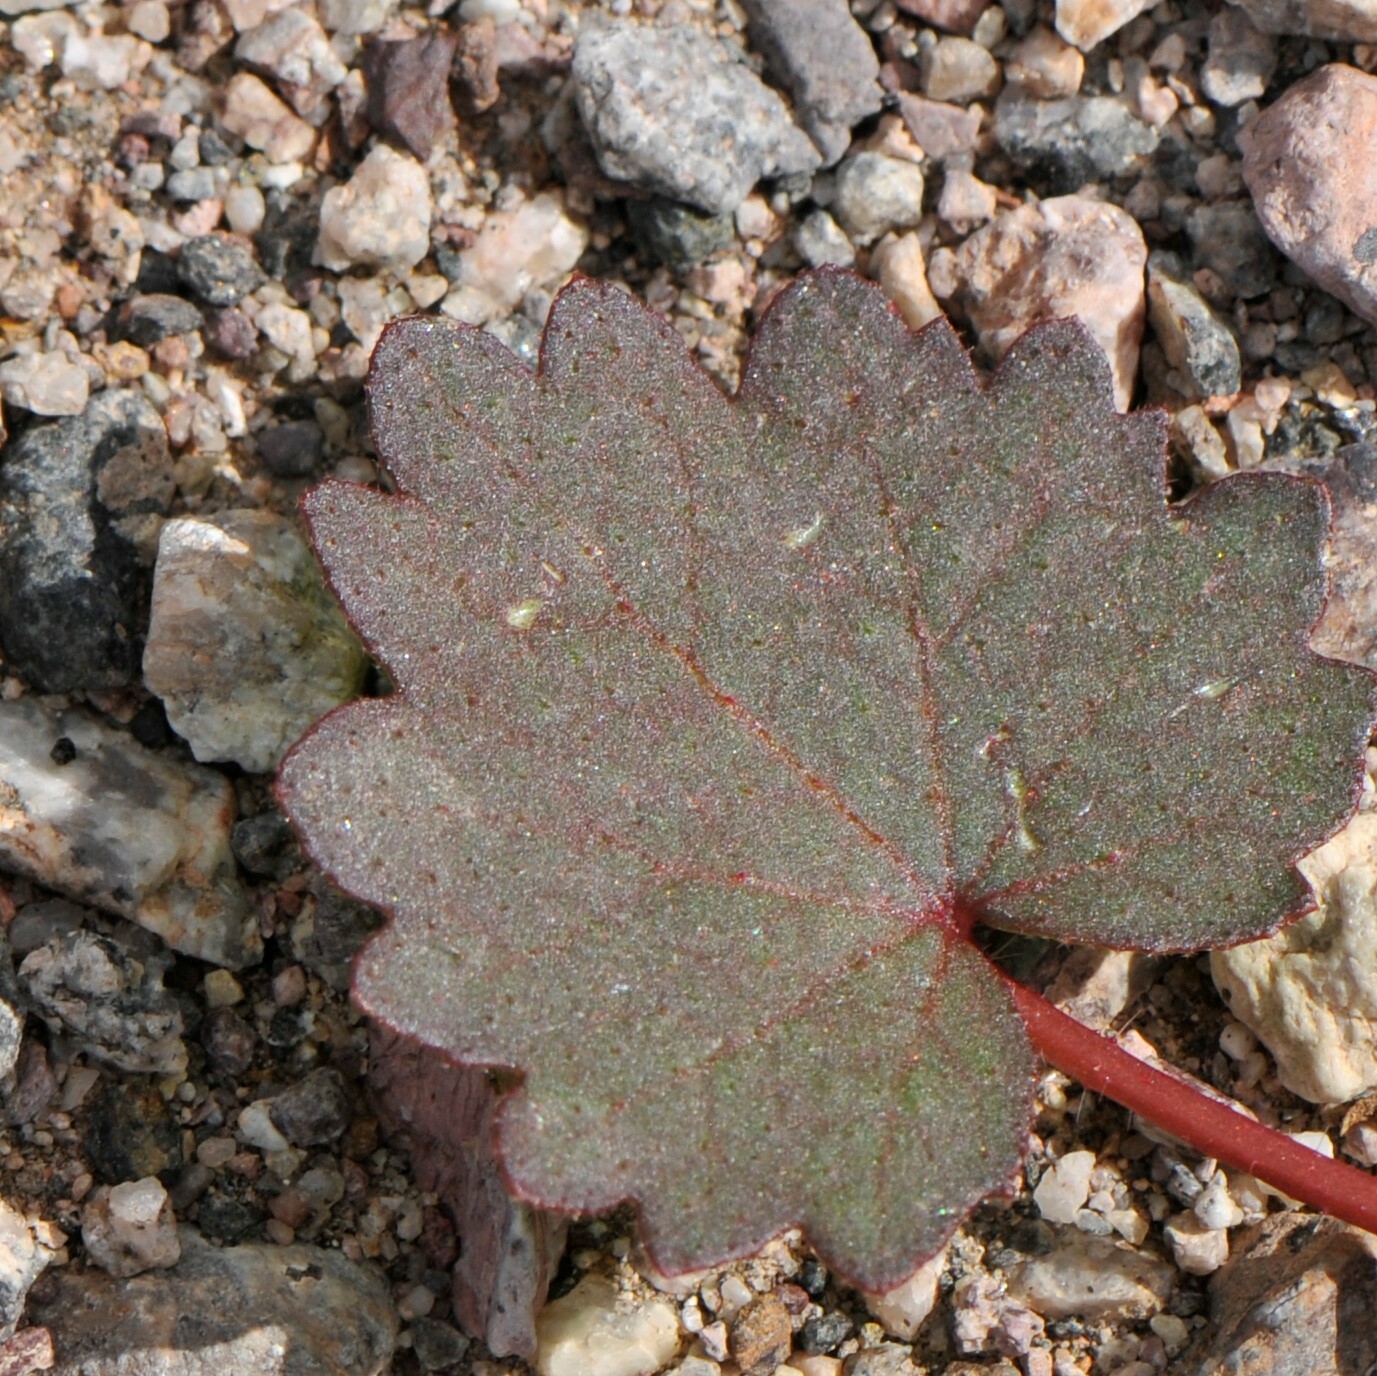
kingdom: Plantae
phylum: Tracheophyta
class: Magnoliopsida
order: Malvales
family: Malvaceae
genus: Eremalche
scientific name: Eremalche rotundifolia
